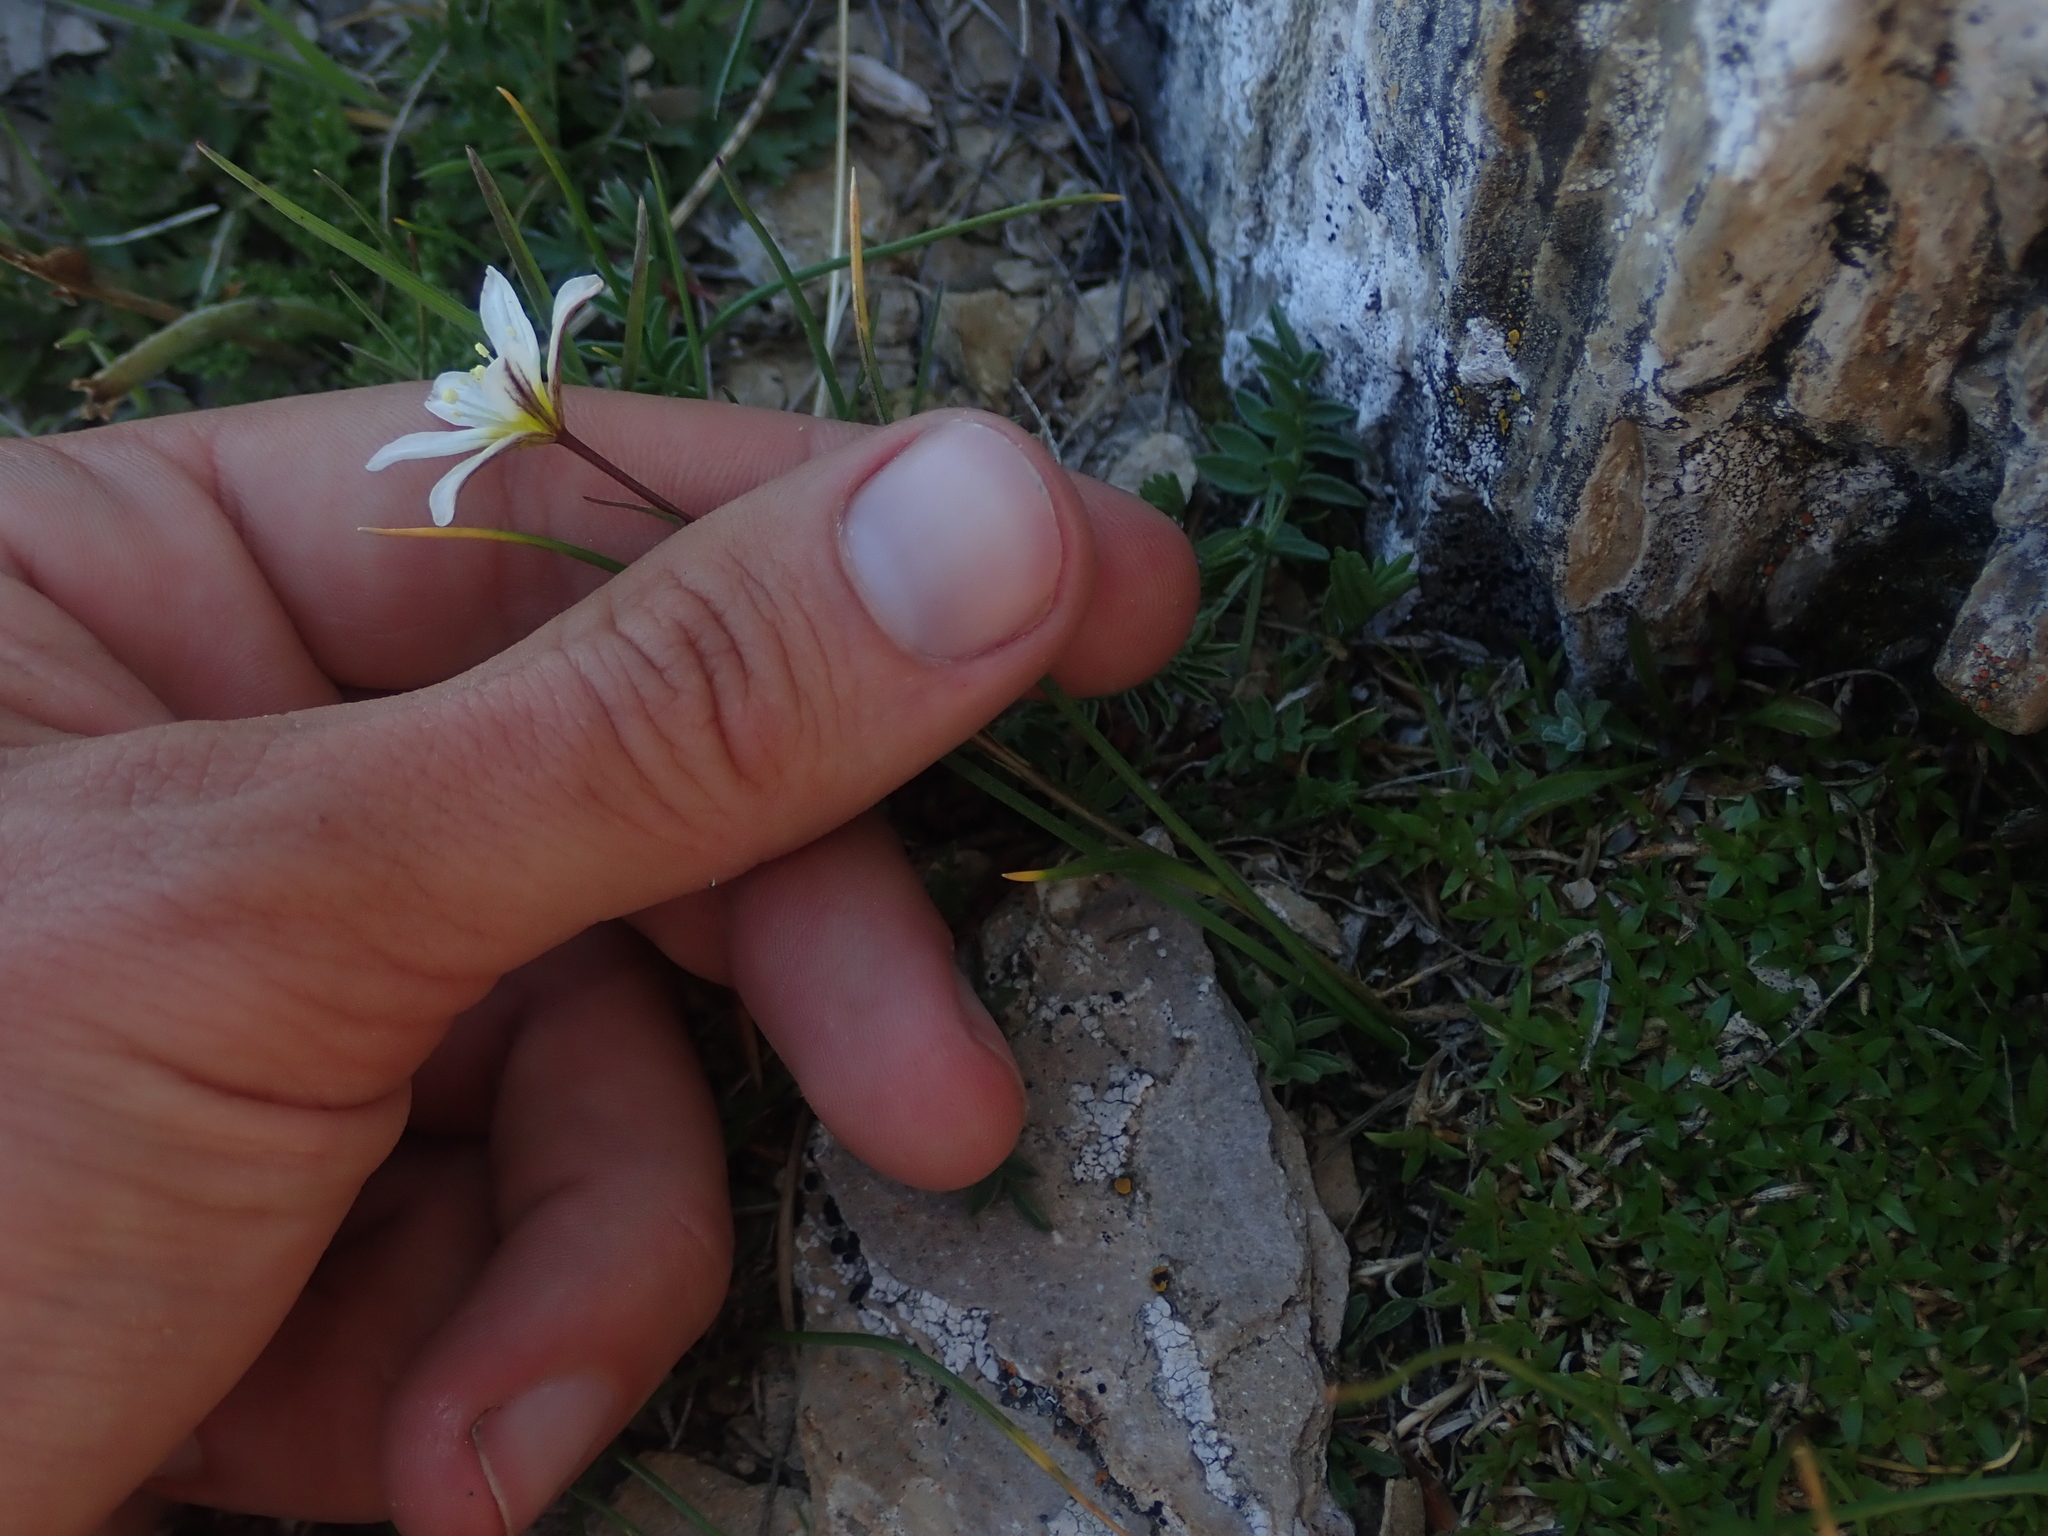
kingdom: Plantae
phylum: Tracheophyta
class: Liliopsida
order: Liliales
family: Liliaceae
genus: Gagea
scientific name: Gagea serotina
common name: Snowdon lily
